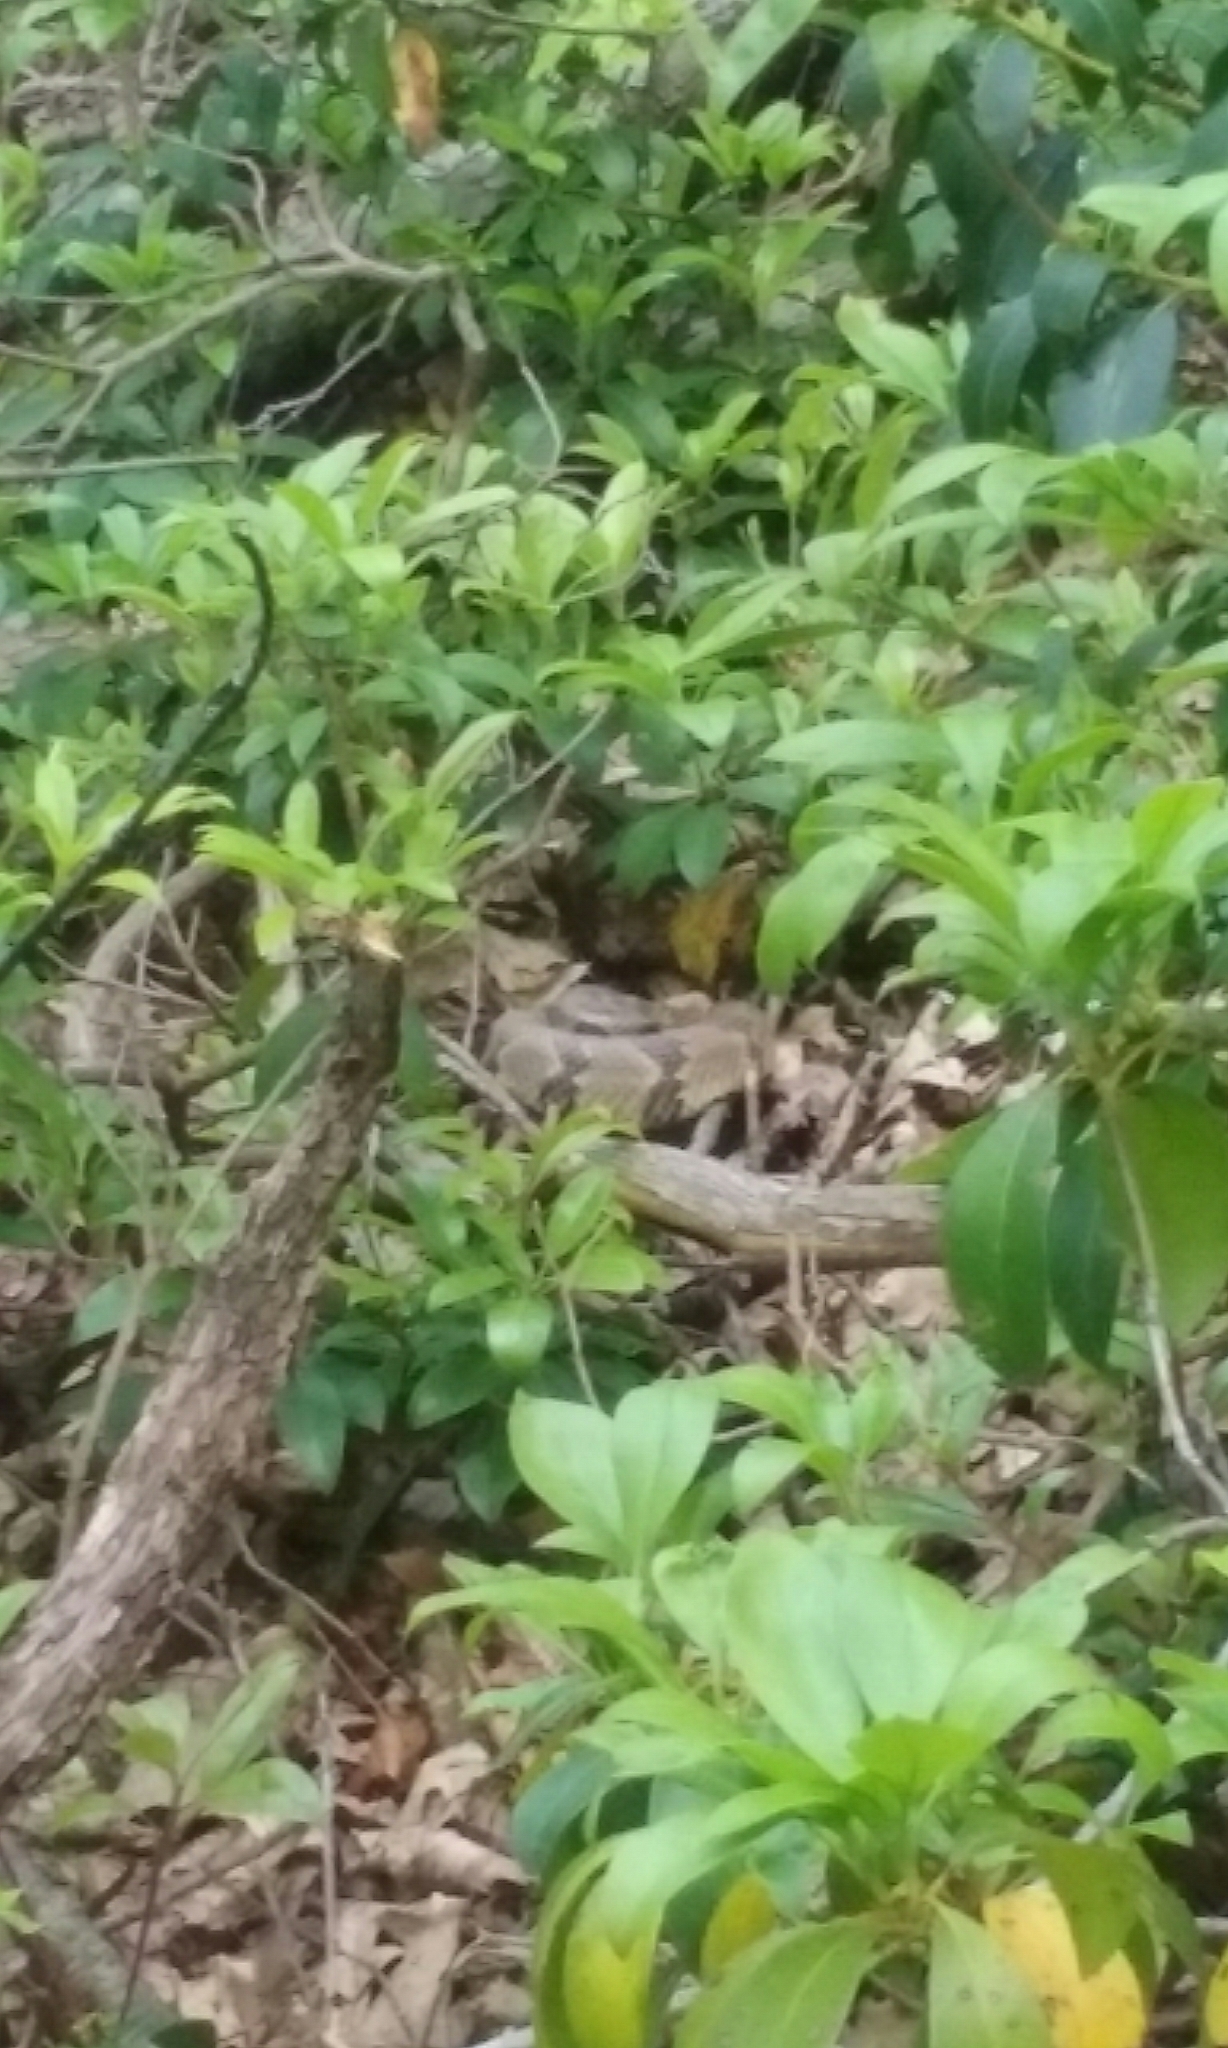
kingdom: Animalia
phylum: Chordata
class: Squamata
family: Viperidae
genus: Crotalus
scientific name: Crotalus horridus
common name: Timber rattlesnake
